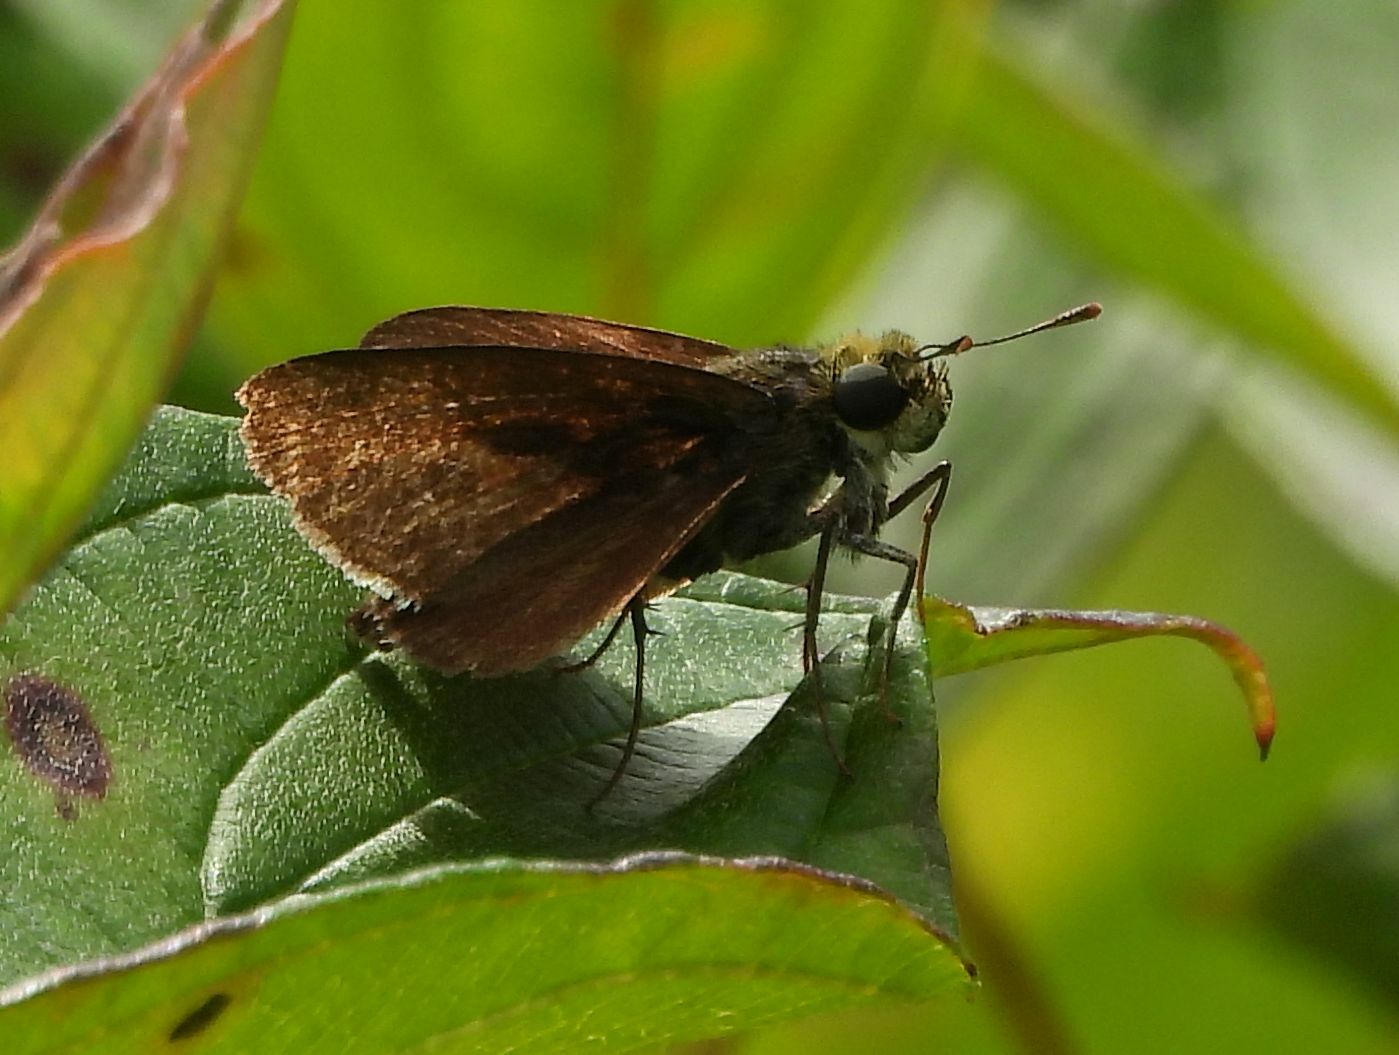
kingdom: Animalia
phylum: Arthropoda
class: Insecta
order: Lepidoptera
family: Hesperiidae
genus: Euphyes
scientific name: Euphyes vestris
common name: Dun skipper
